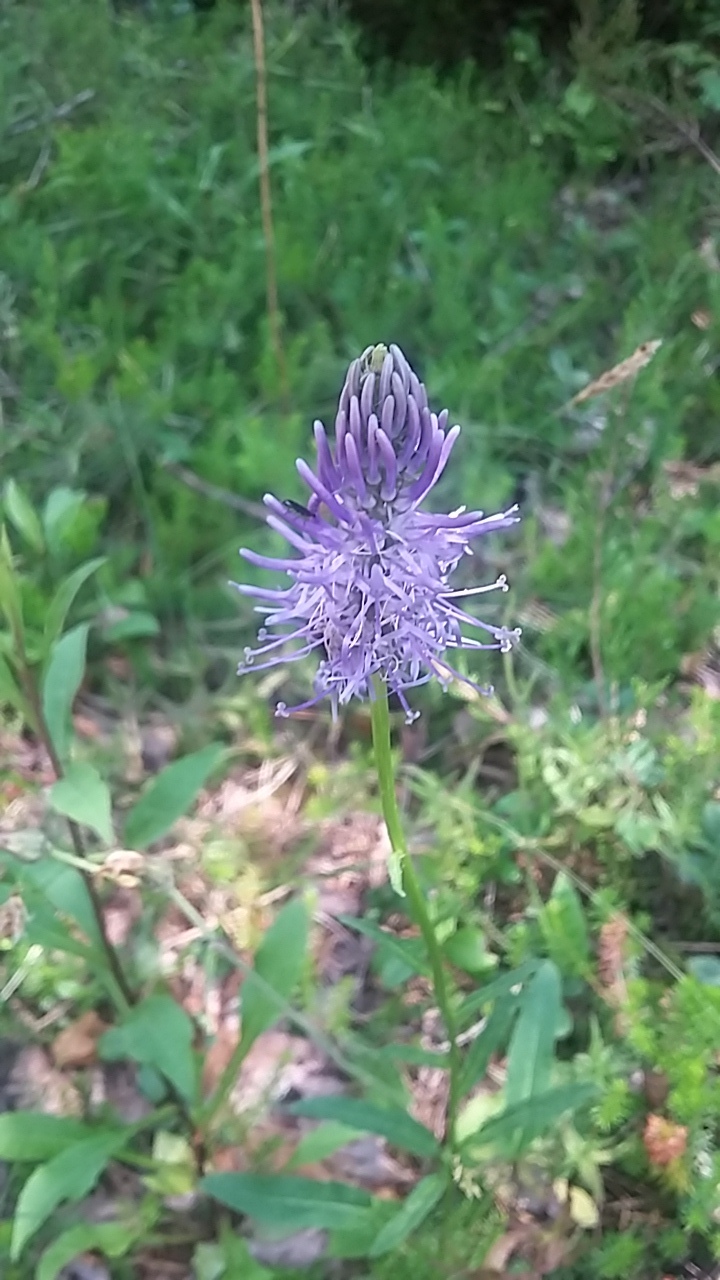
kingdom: Plantae
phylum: Tracheophyta
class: Magnoliopsida
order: Asterales
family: Campanulaceae
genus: Phyteuma
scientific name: Phyteuma betonicifolium
